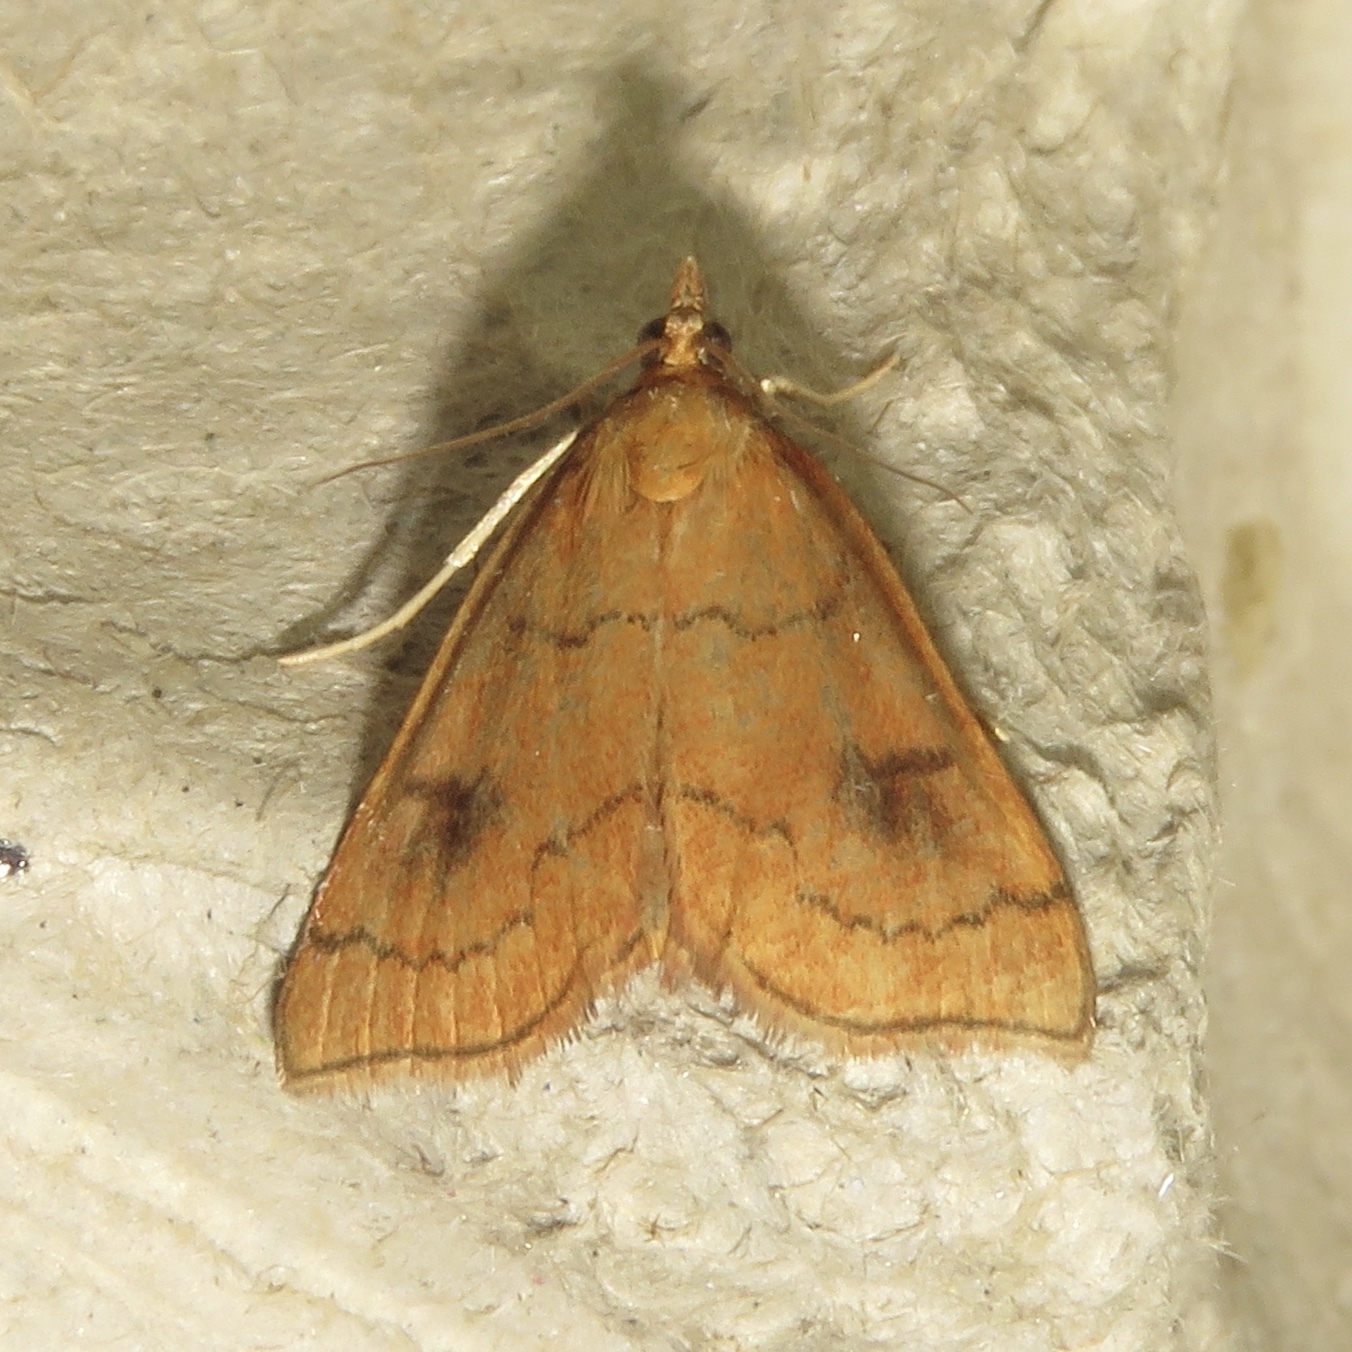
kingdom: Animalia
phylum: Arthropoda
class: Insecta
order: Lepidoptera
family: Crambidae
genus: Fumibotys
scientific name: Fumibotys fumalis
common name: Mint root borer moth
